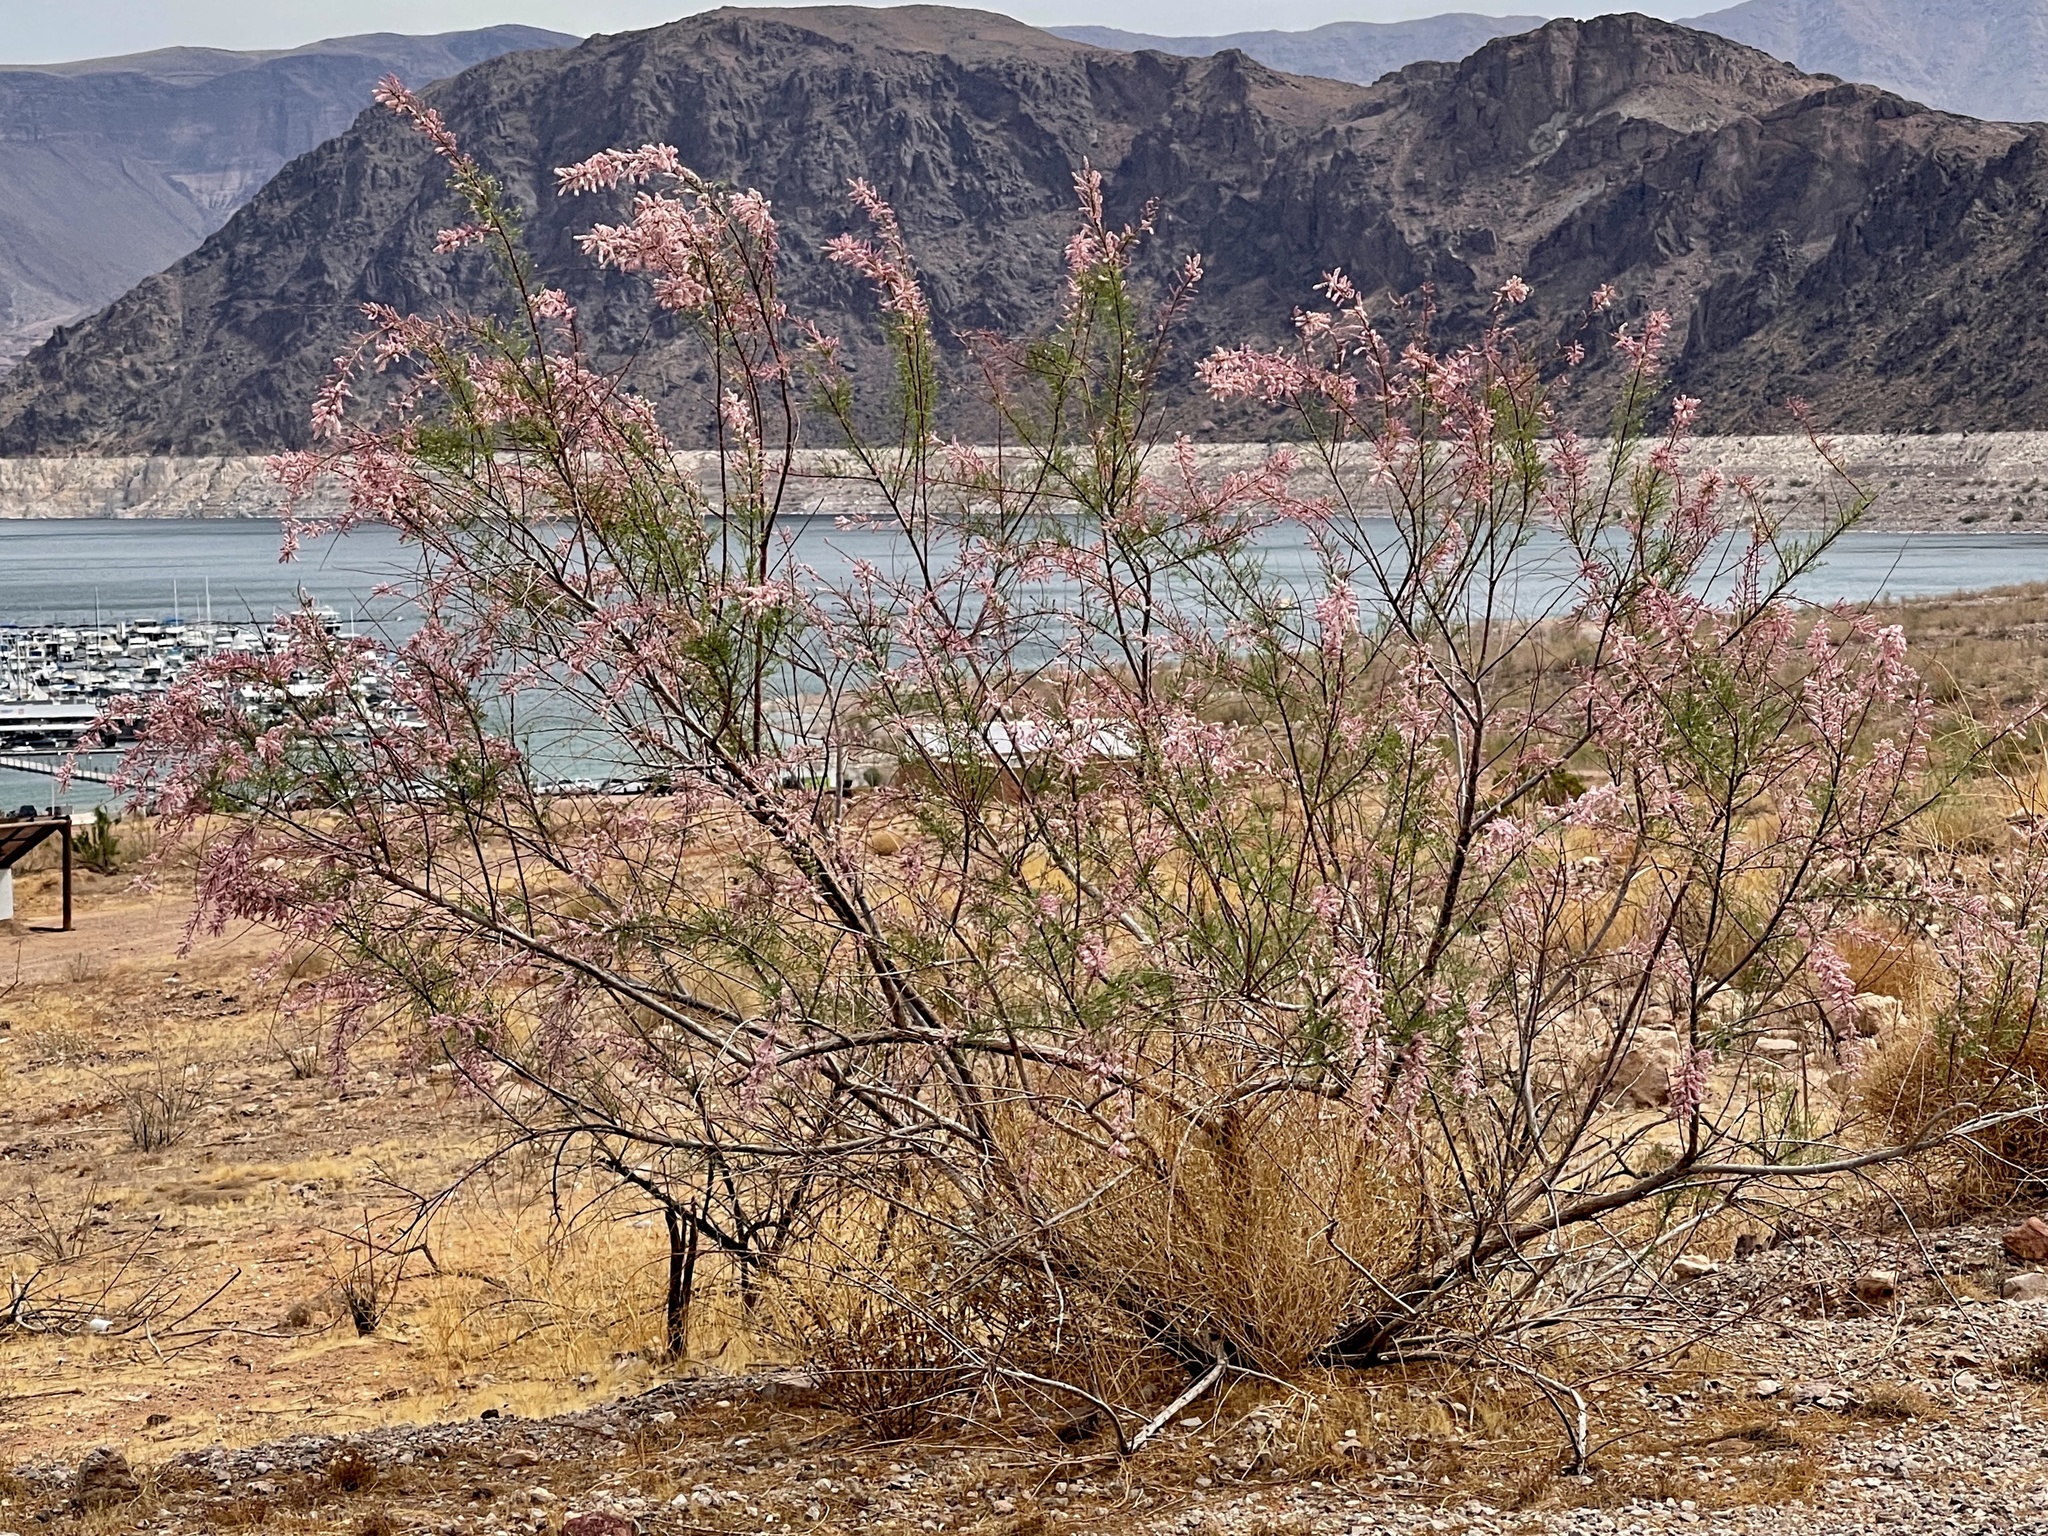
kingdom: Plantae
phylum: Tracheophyta
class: Magnoliopsida
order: Caryophyllales
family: Tamaricaceae
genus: Tamarix
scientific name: Tamarix ramosissima
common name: Pink tamarisk
